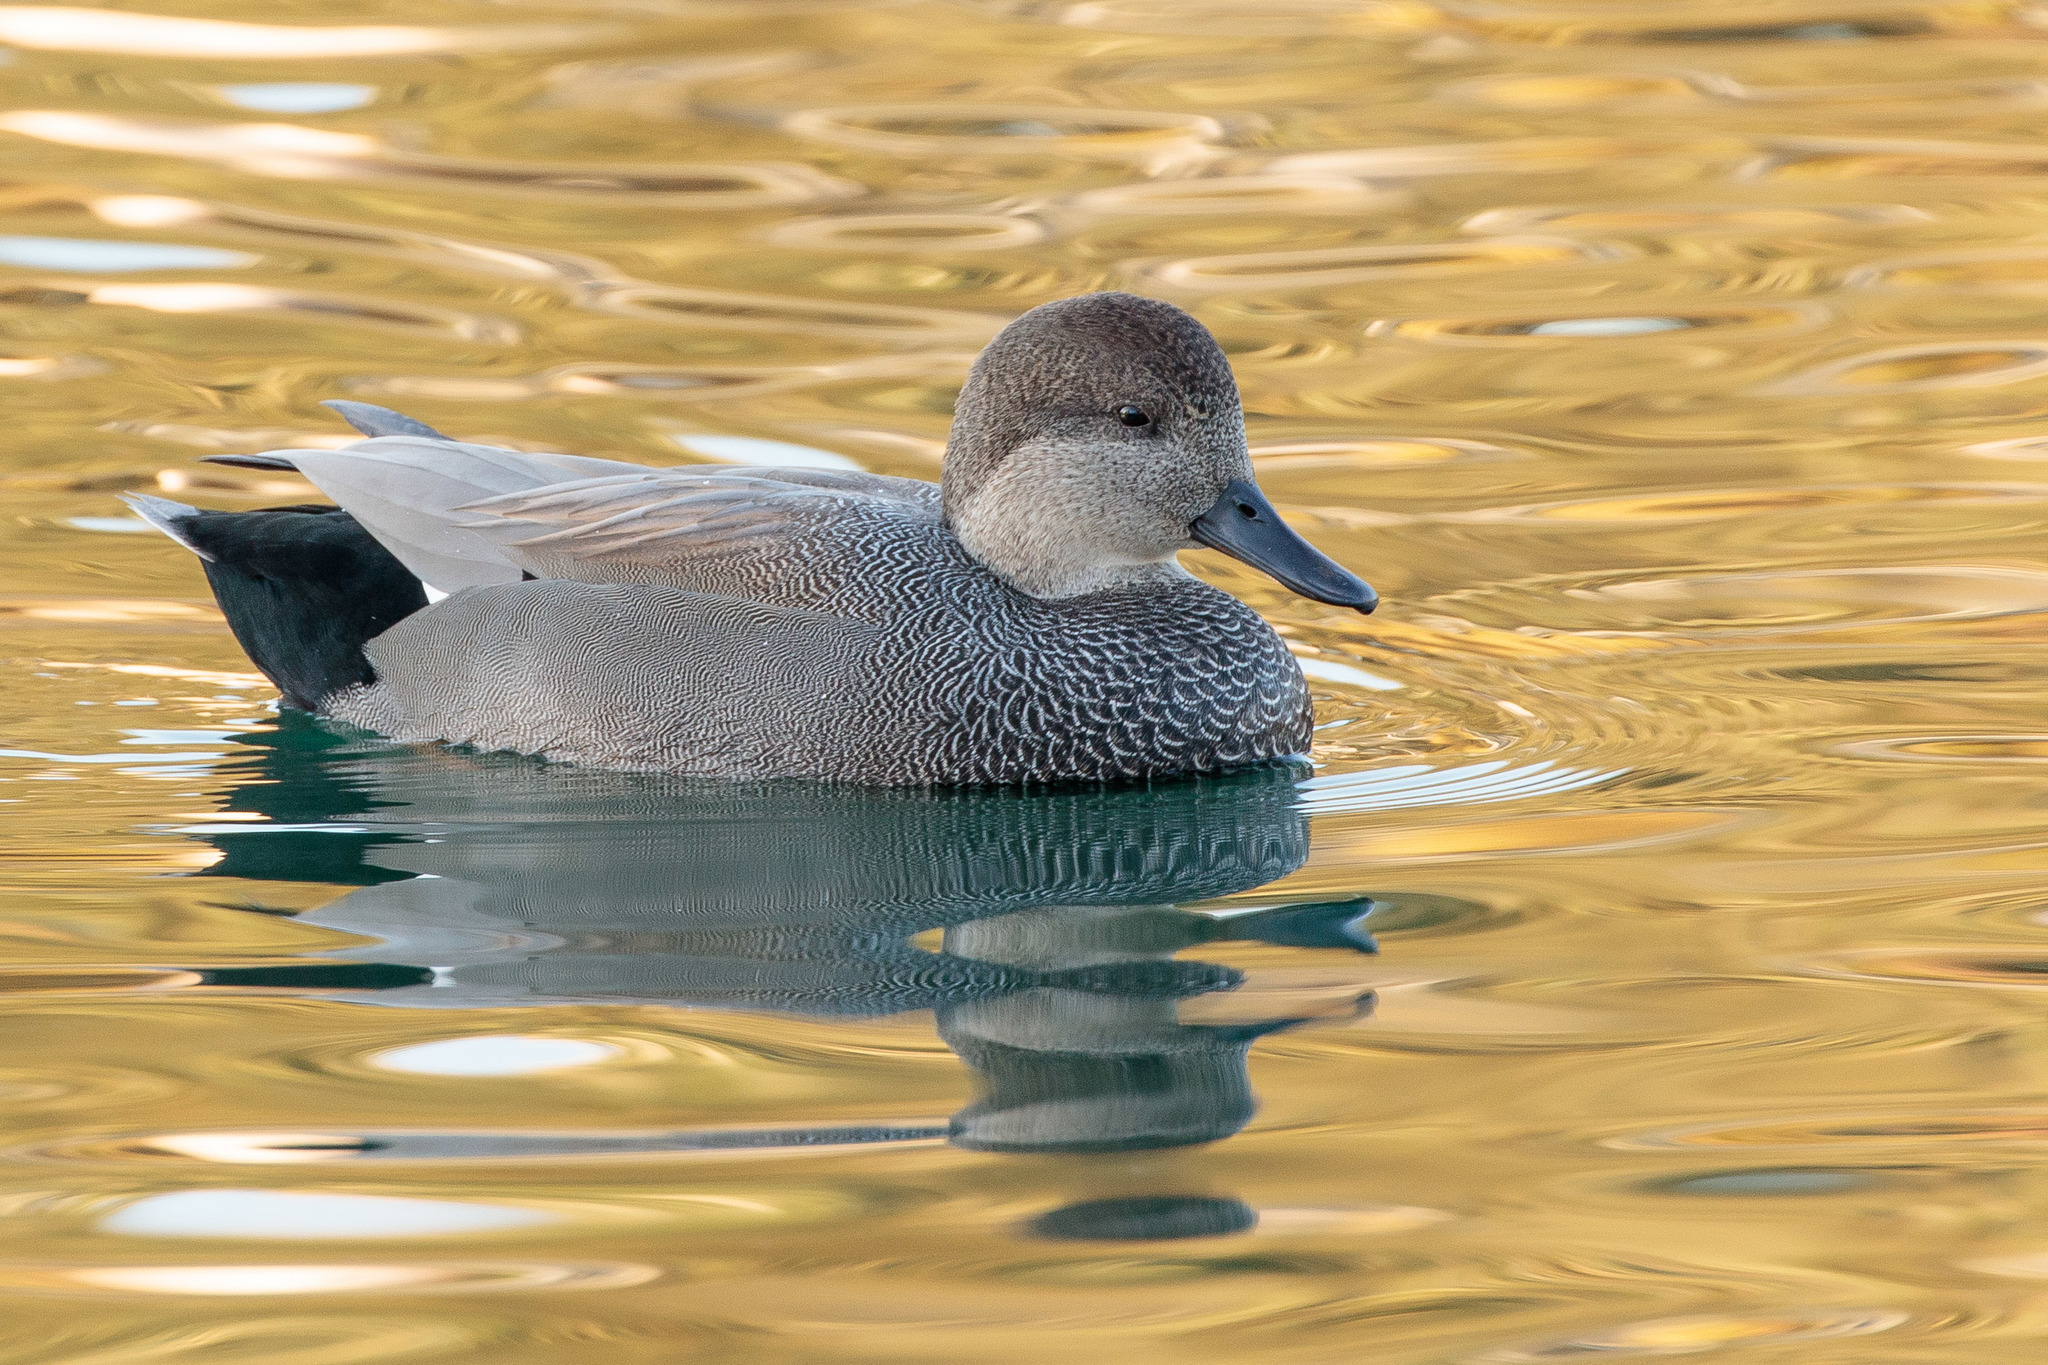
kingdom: Animalia
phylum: Chordata
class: Aves
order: Anseriformes
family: Anatidae
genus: Mareca
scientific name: Mareca strepera
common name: Gadwall
